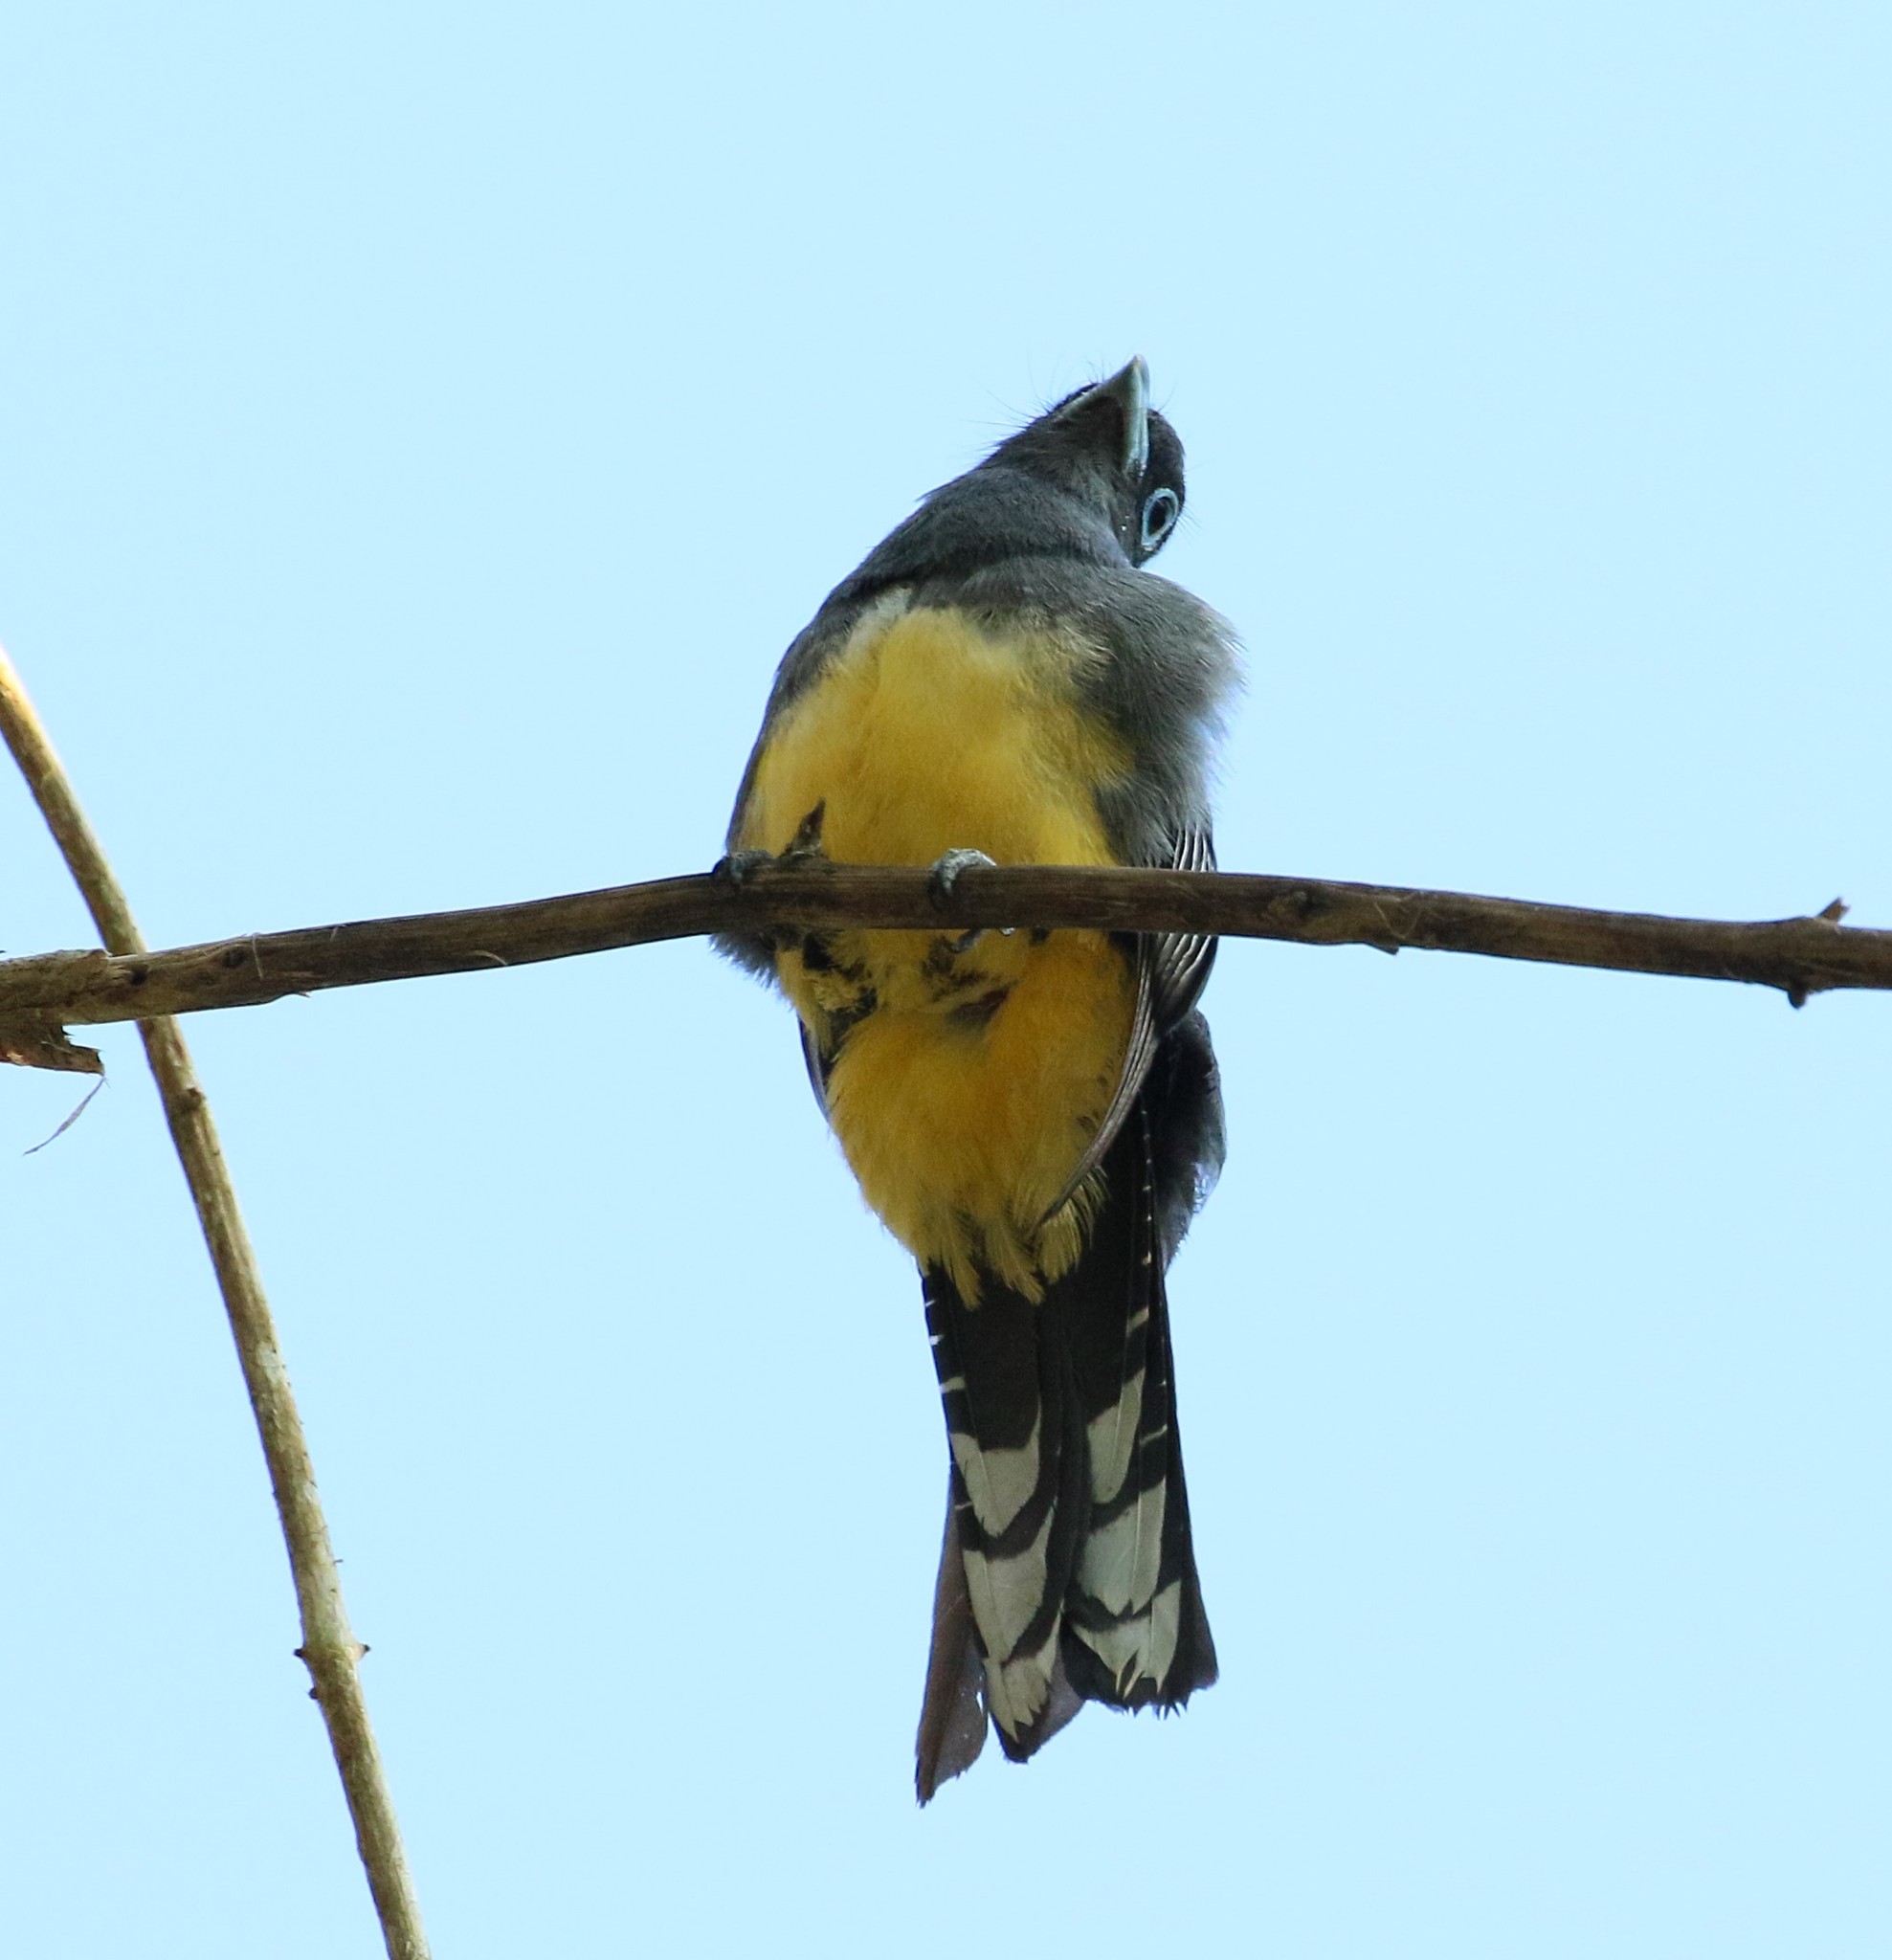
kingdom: Animalia
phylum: Chordata
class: Aves
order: Trogoniformes
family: Trogonidae
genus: Trogon
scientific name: Trogon melanocephalus
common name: Black-headed trogon
